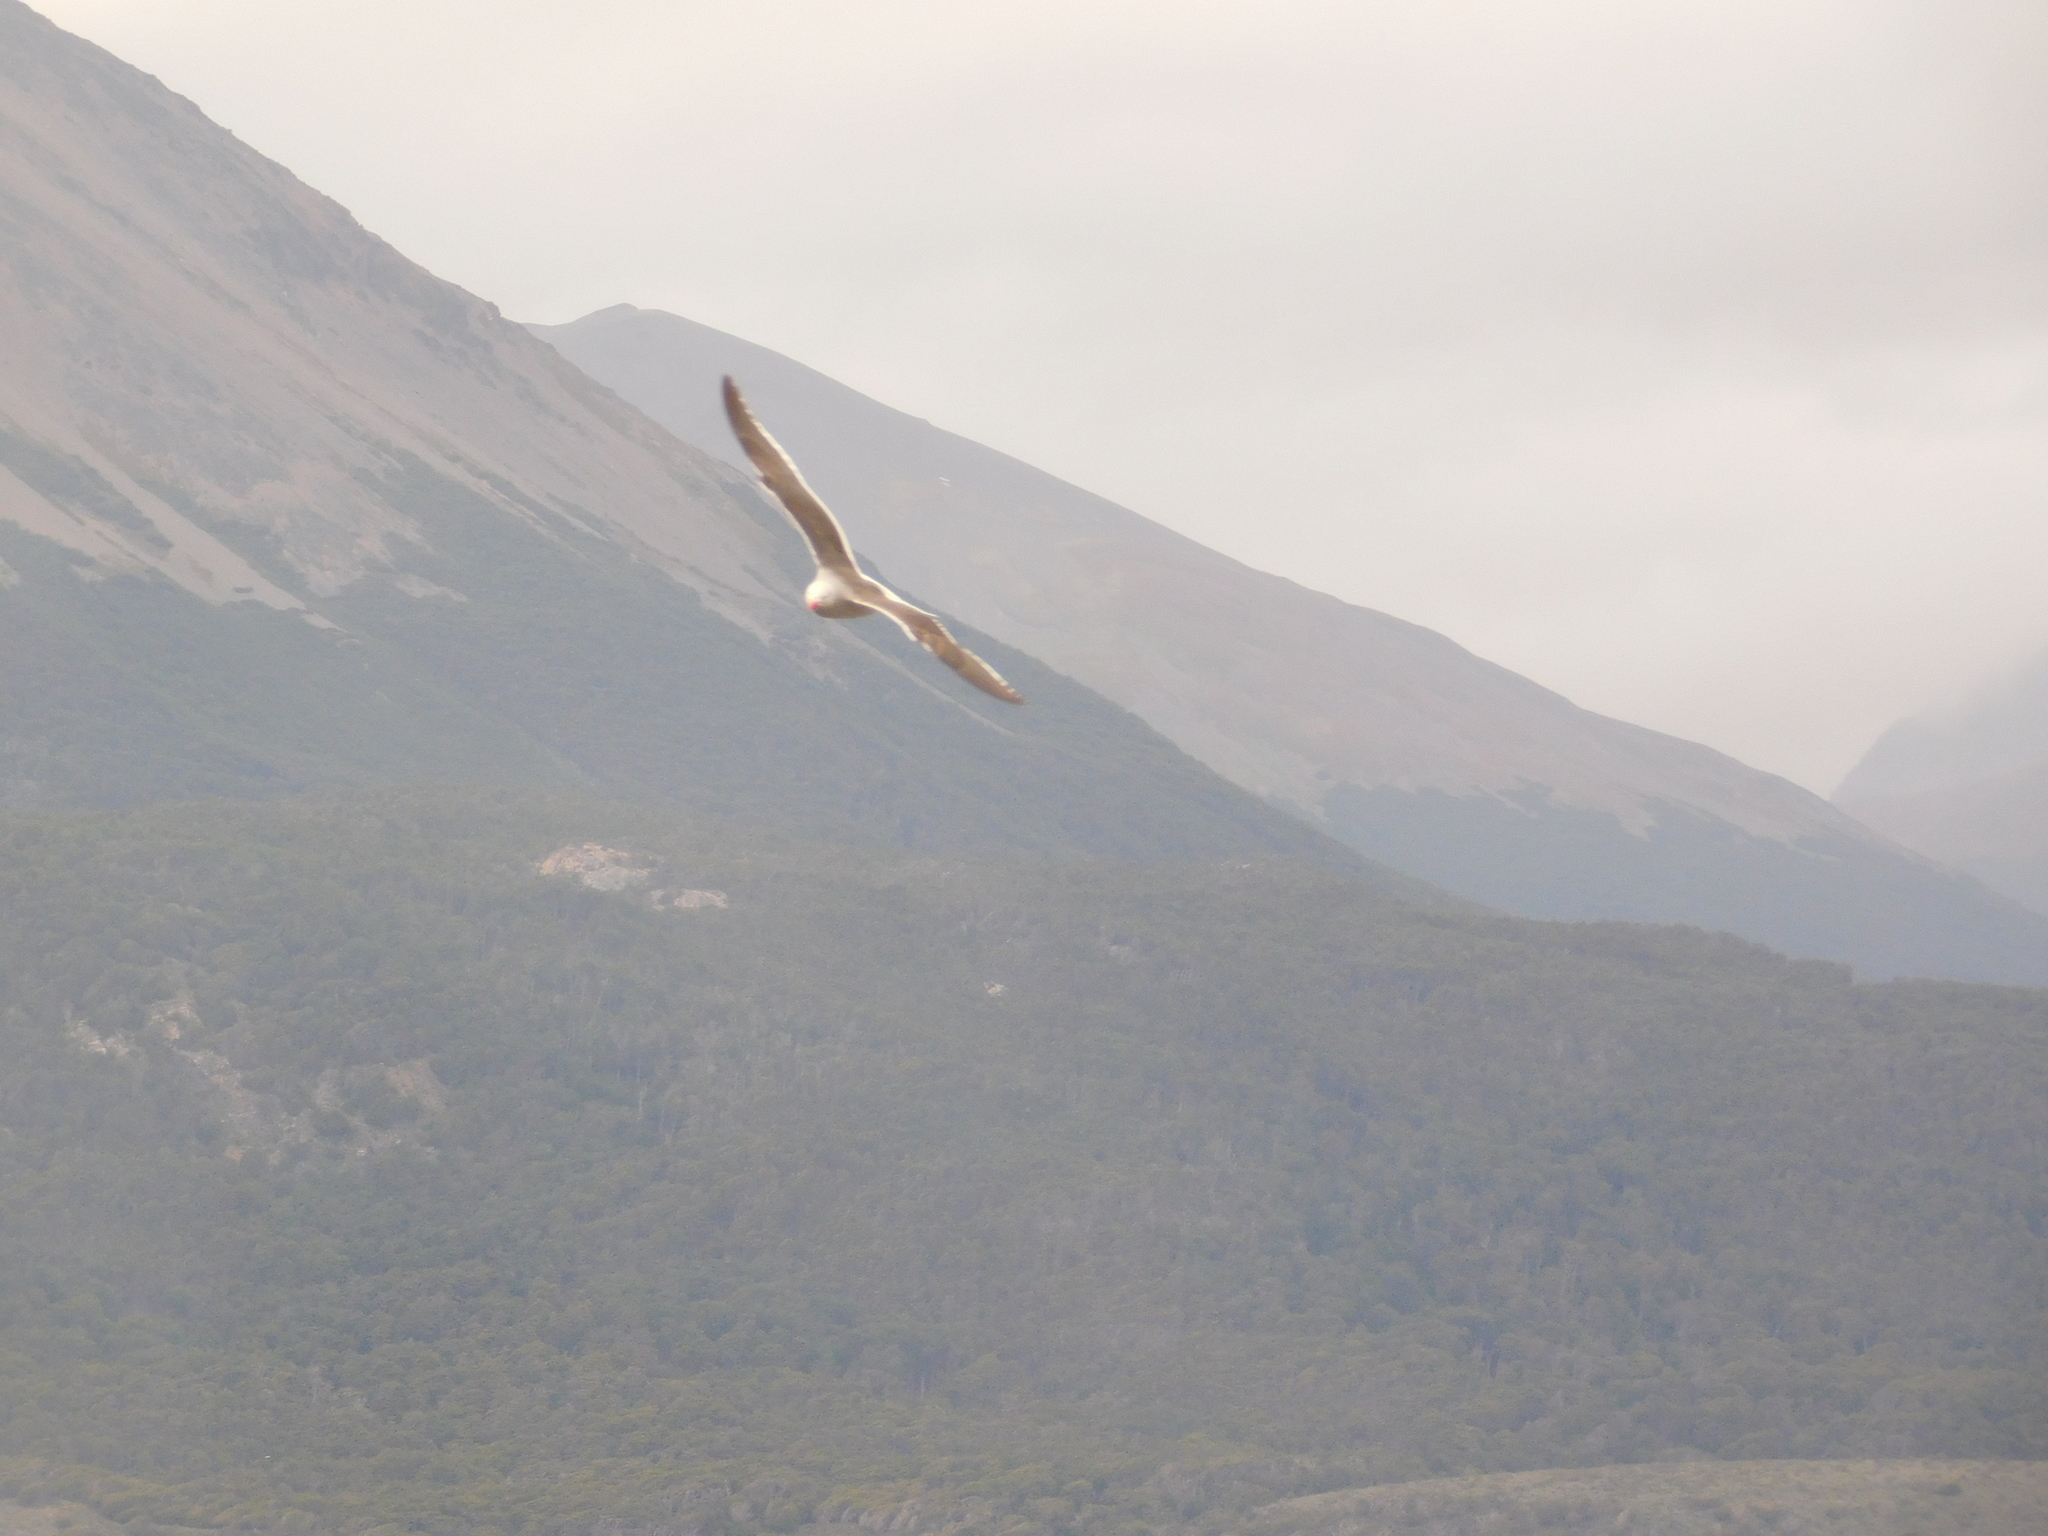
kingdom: Animalia
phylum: Chordata
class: Aves
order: Charadriiformes
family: Laridae
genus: Leucophaeus
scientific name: Leucophaeus scoresbii
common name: Dolphin gull
